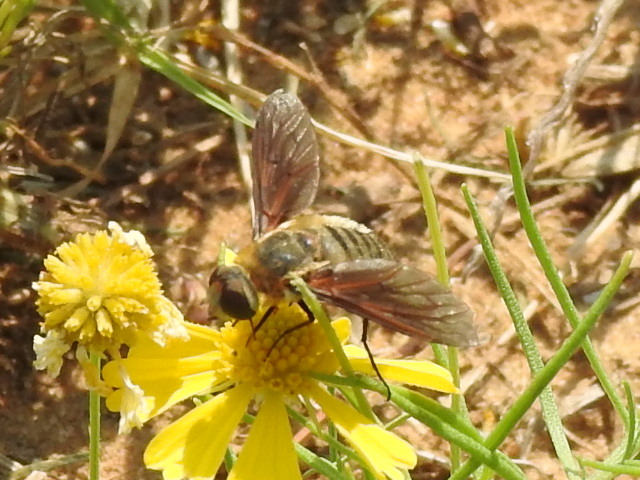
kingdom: Animalia
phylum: Arthropoda
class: Insecta
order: Diptera
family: Bombyliidae
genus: Poecilanthrax
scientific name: Poecilanthrax lucifer
